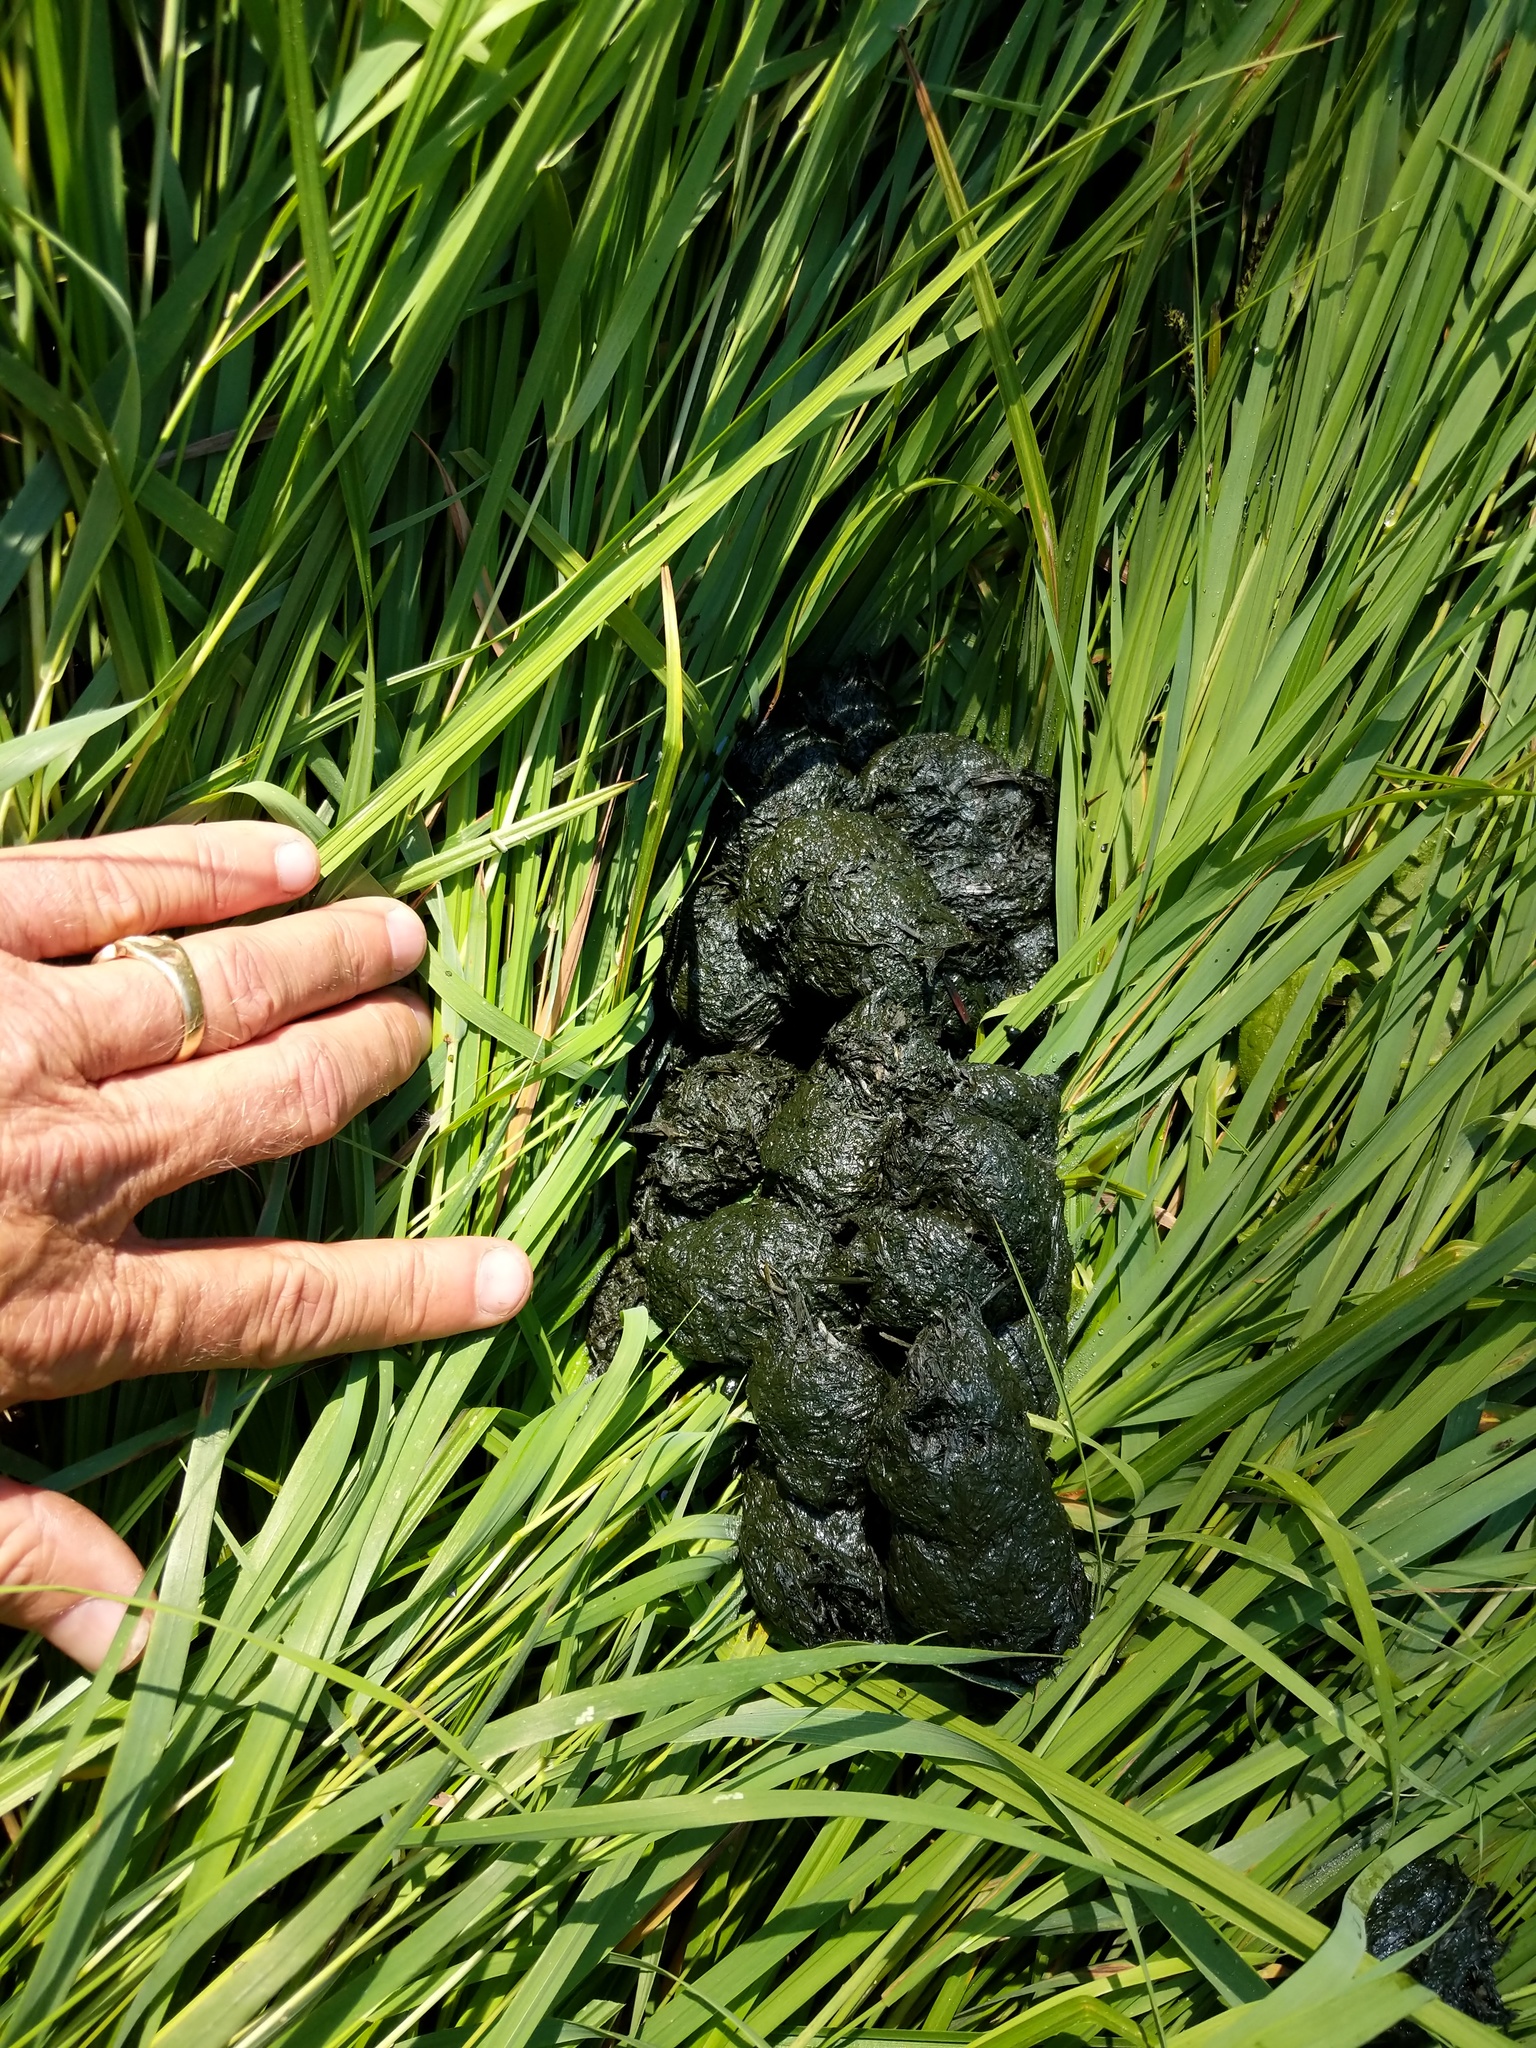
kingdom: Animalia
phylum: Chordata
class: Mammalia
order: Carnivora
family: Ursidae
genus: Ursus
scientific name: Ursus americanus
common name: American black bear
